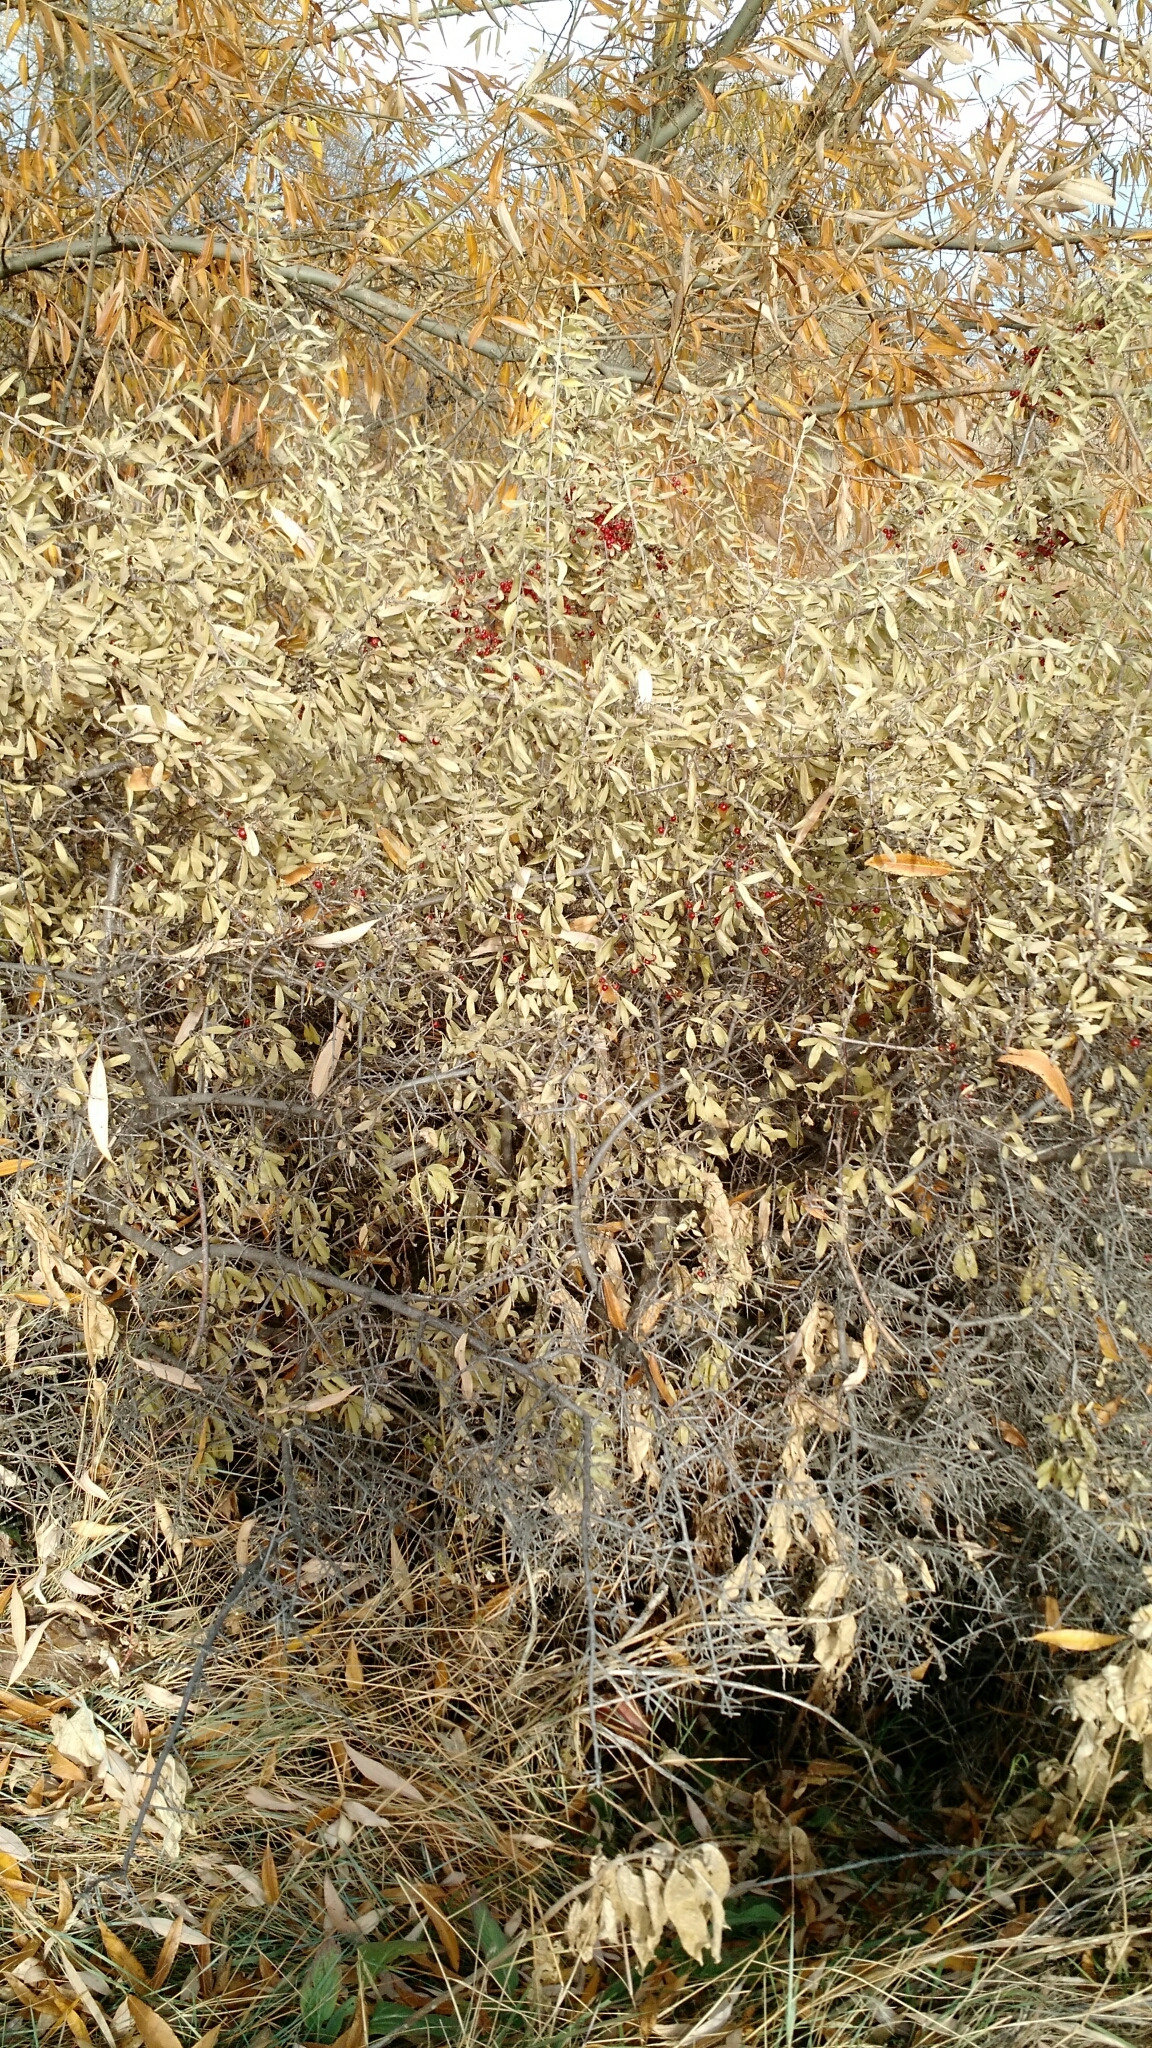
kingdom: Plantae
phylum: Tracheophyta
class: Magnoliopsida
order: Rosales
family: Elaeagnaceae
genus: Shepherdia
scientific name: Shepherdia argentea
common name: Silver buffaloberry
